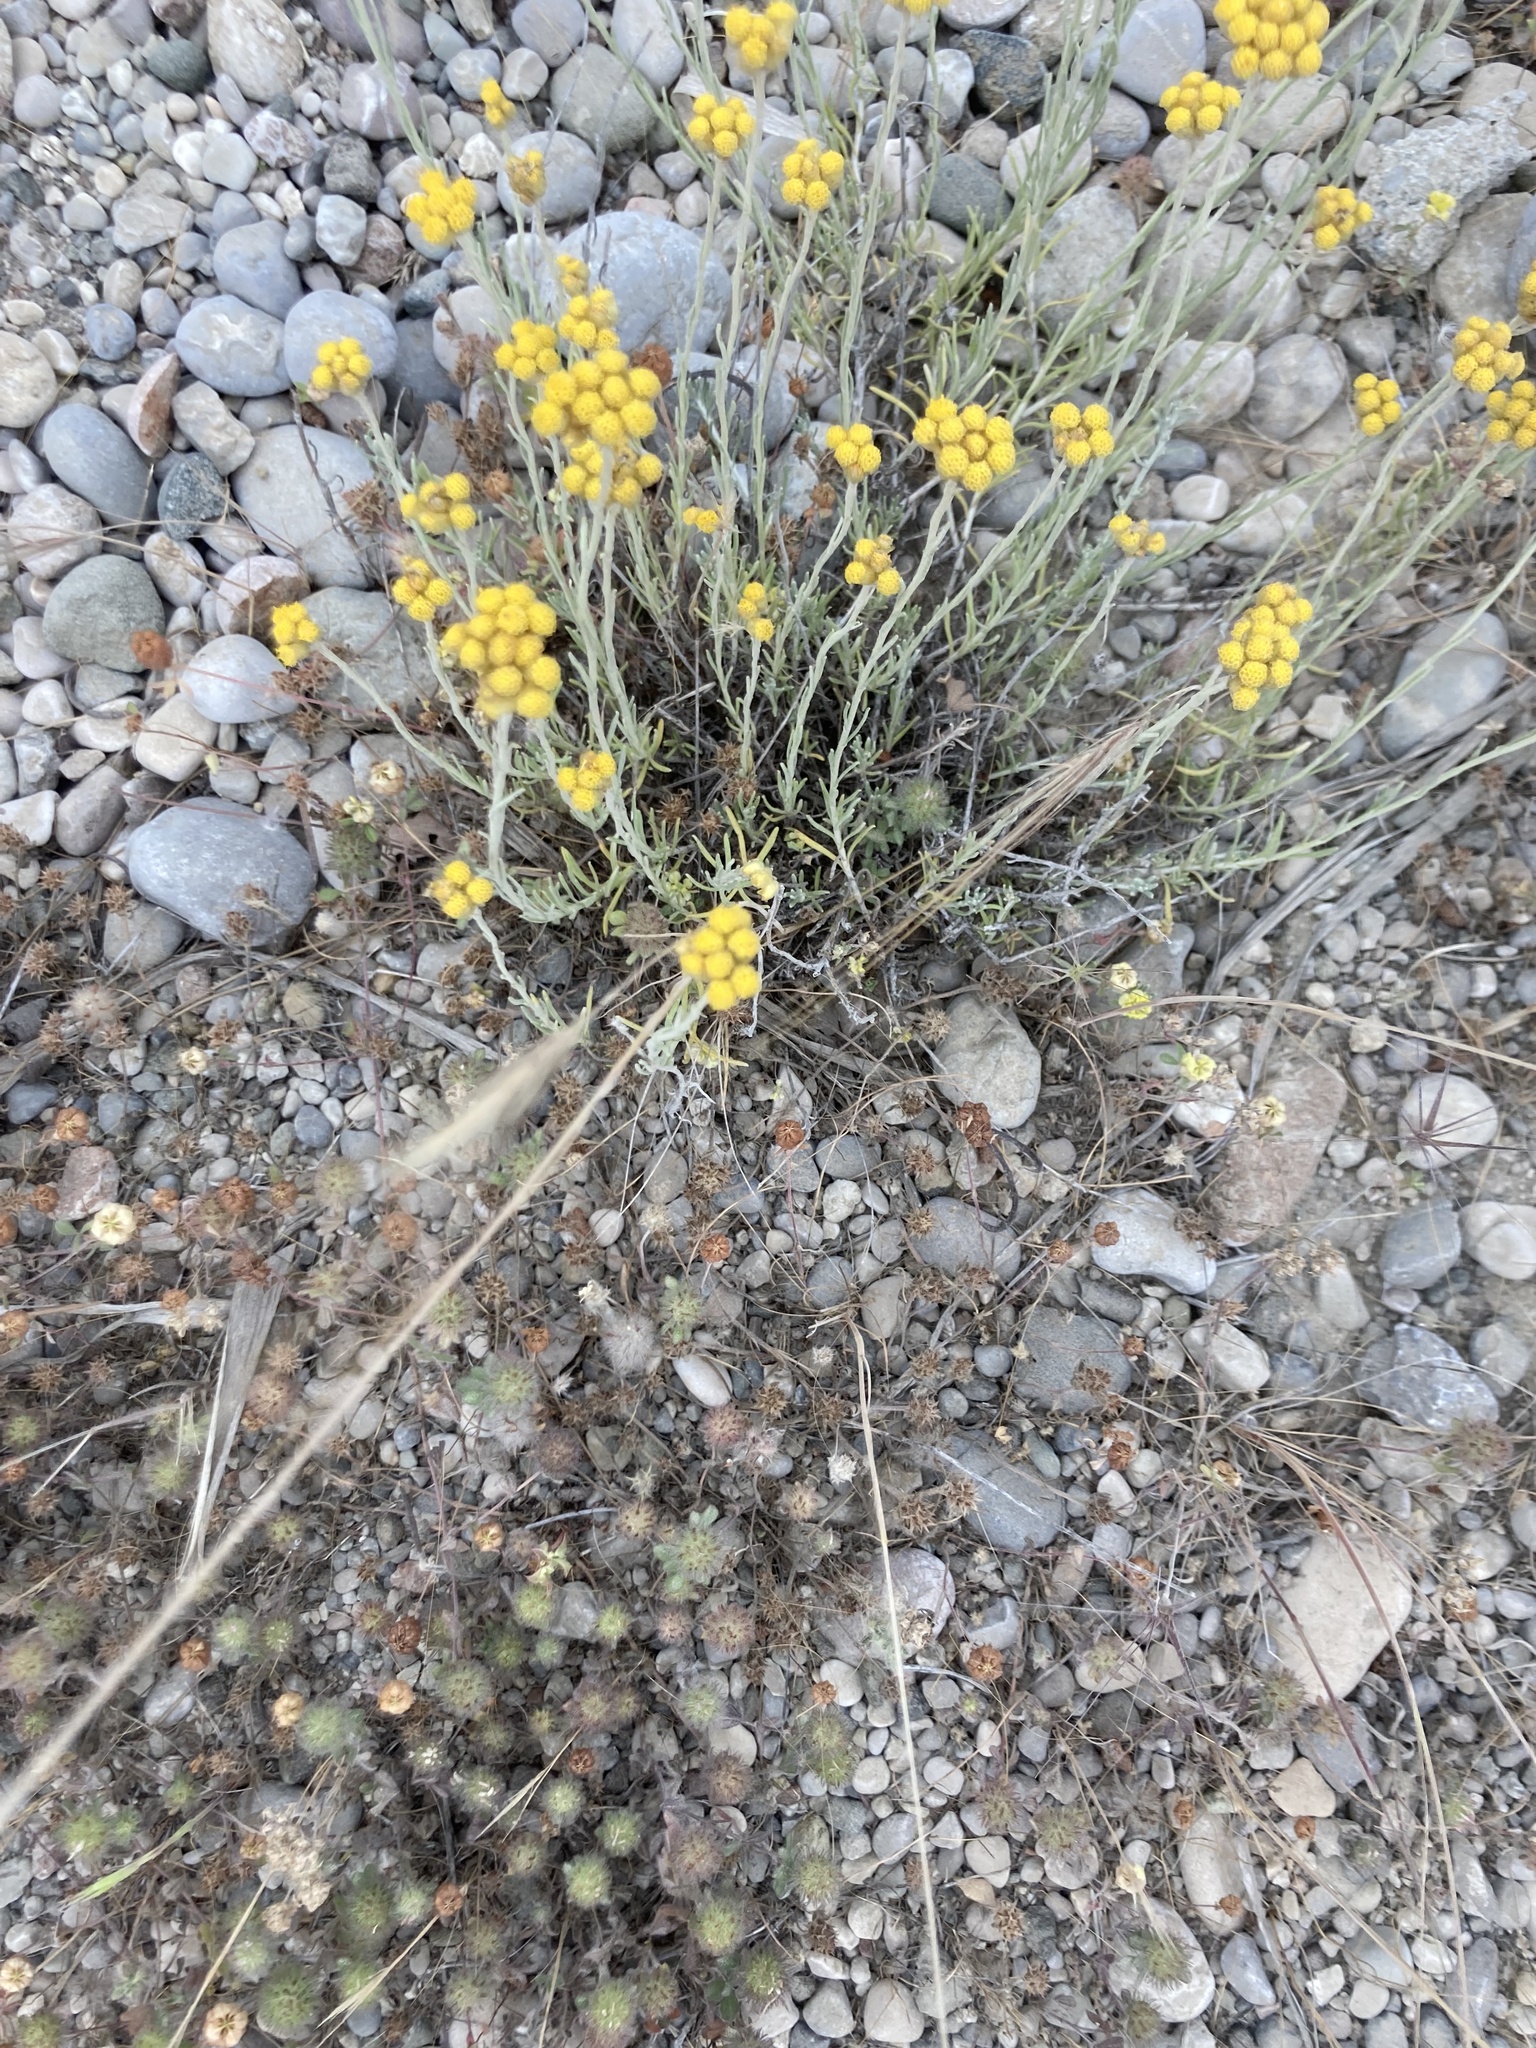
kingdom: Plantae
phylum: Tracheophyta
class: Magnoliopsida
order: Asterales
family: Asteraceae
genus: Helichrysum
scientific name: Helichrysum stoechas
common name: Goldilocks
